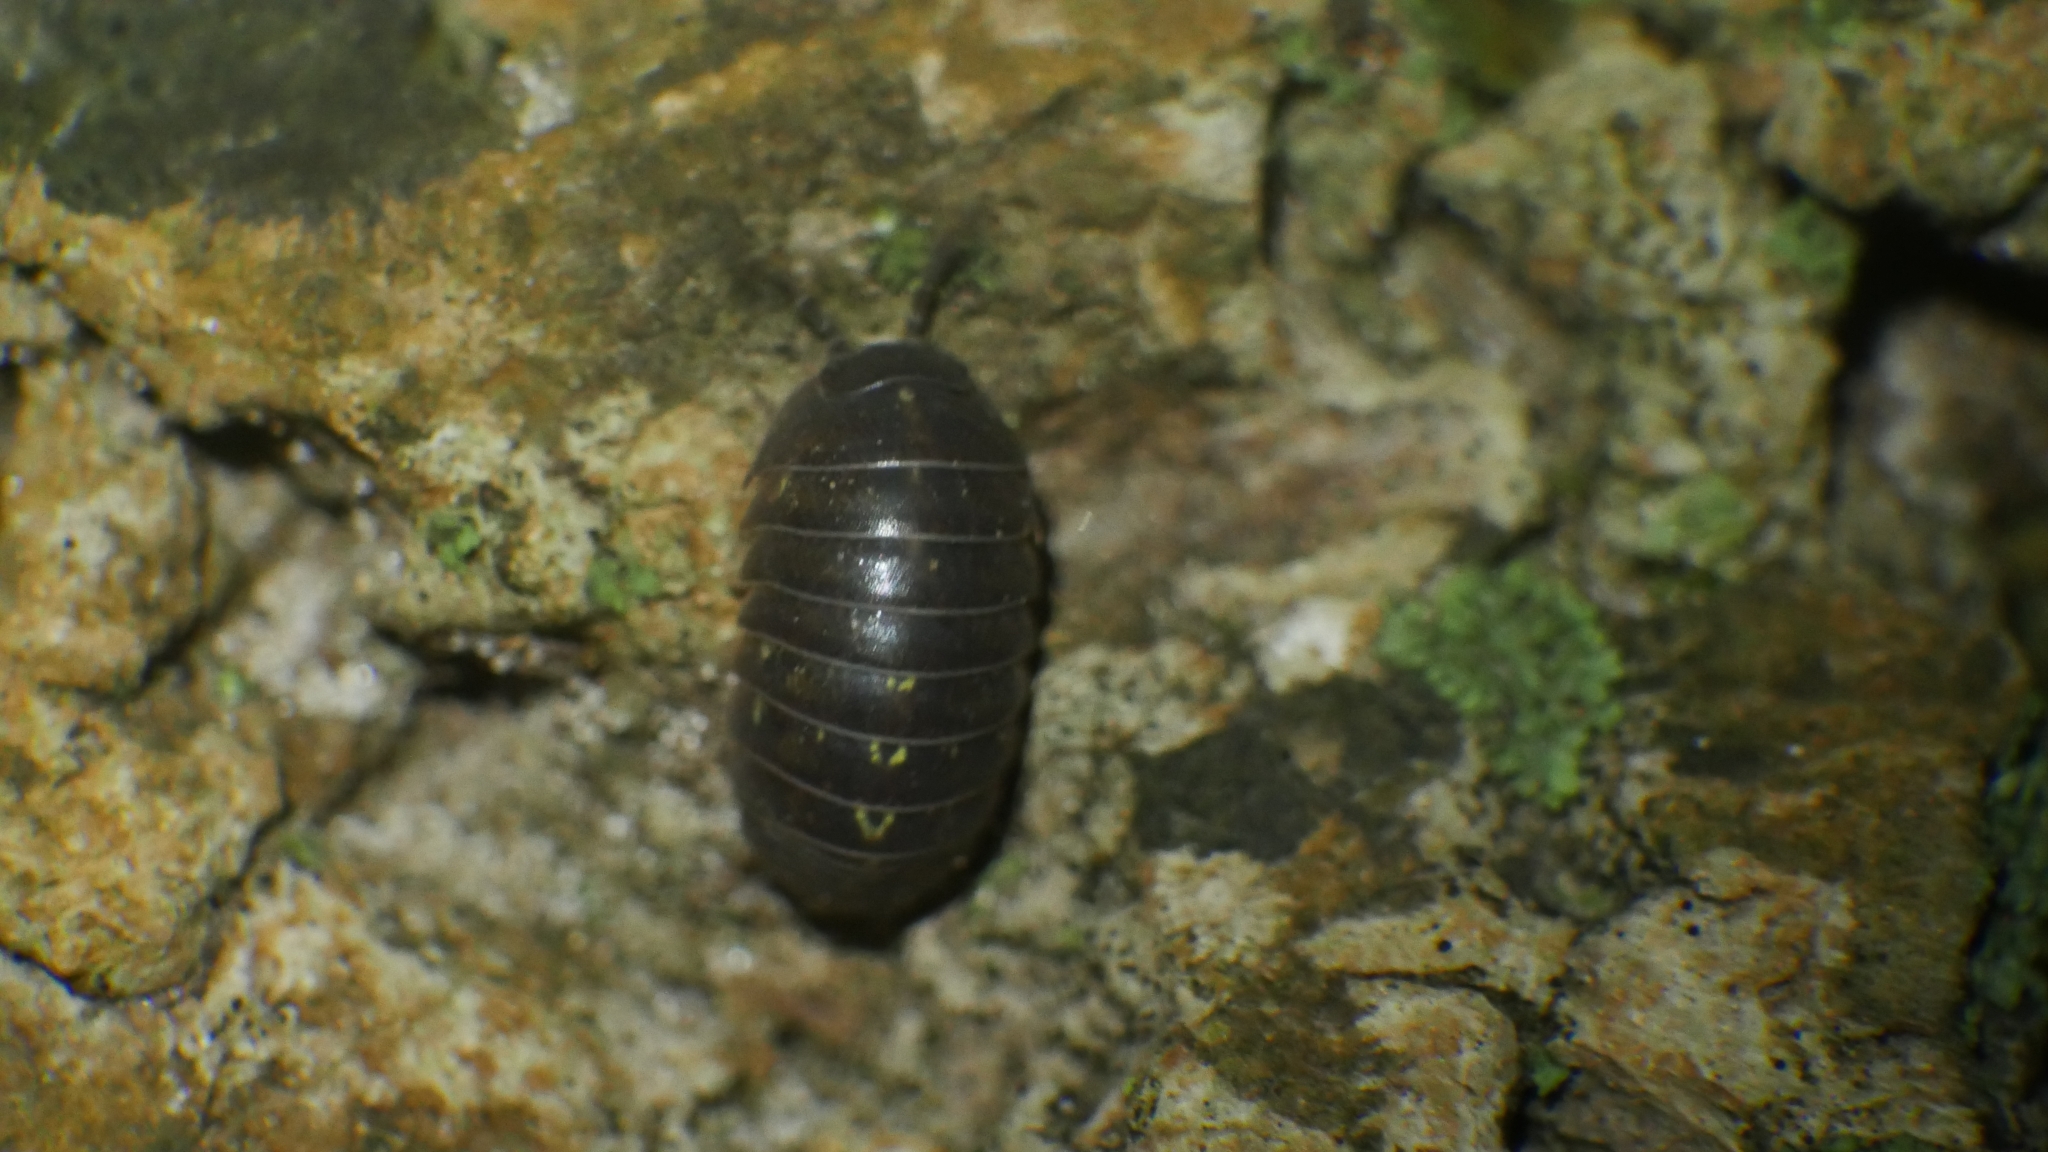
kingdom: Animalia
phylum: Arthropoda
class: Malacostraca
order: Isopoda
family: Armadillidiidae
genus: Armadillidium
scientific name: Armadillidium vulgare
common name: Common pill woodlouse
